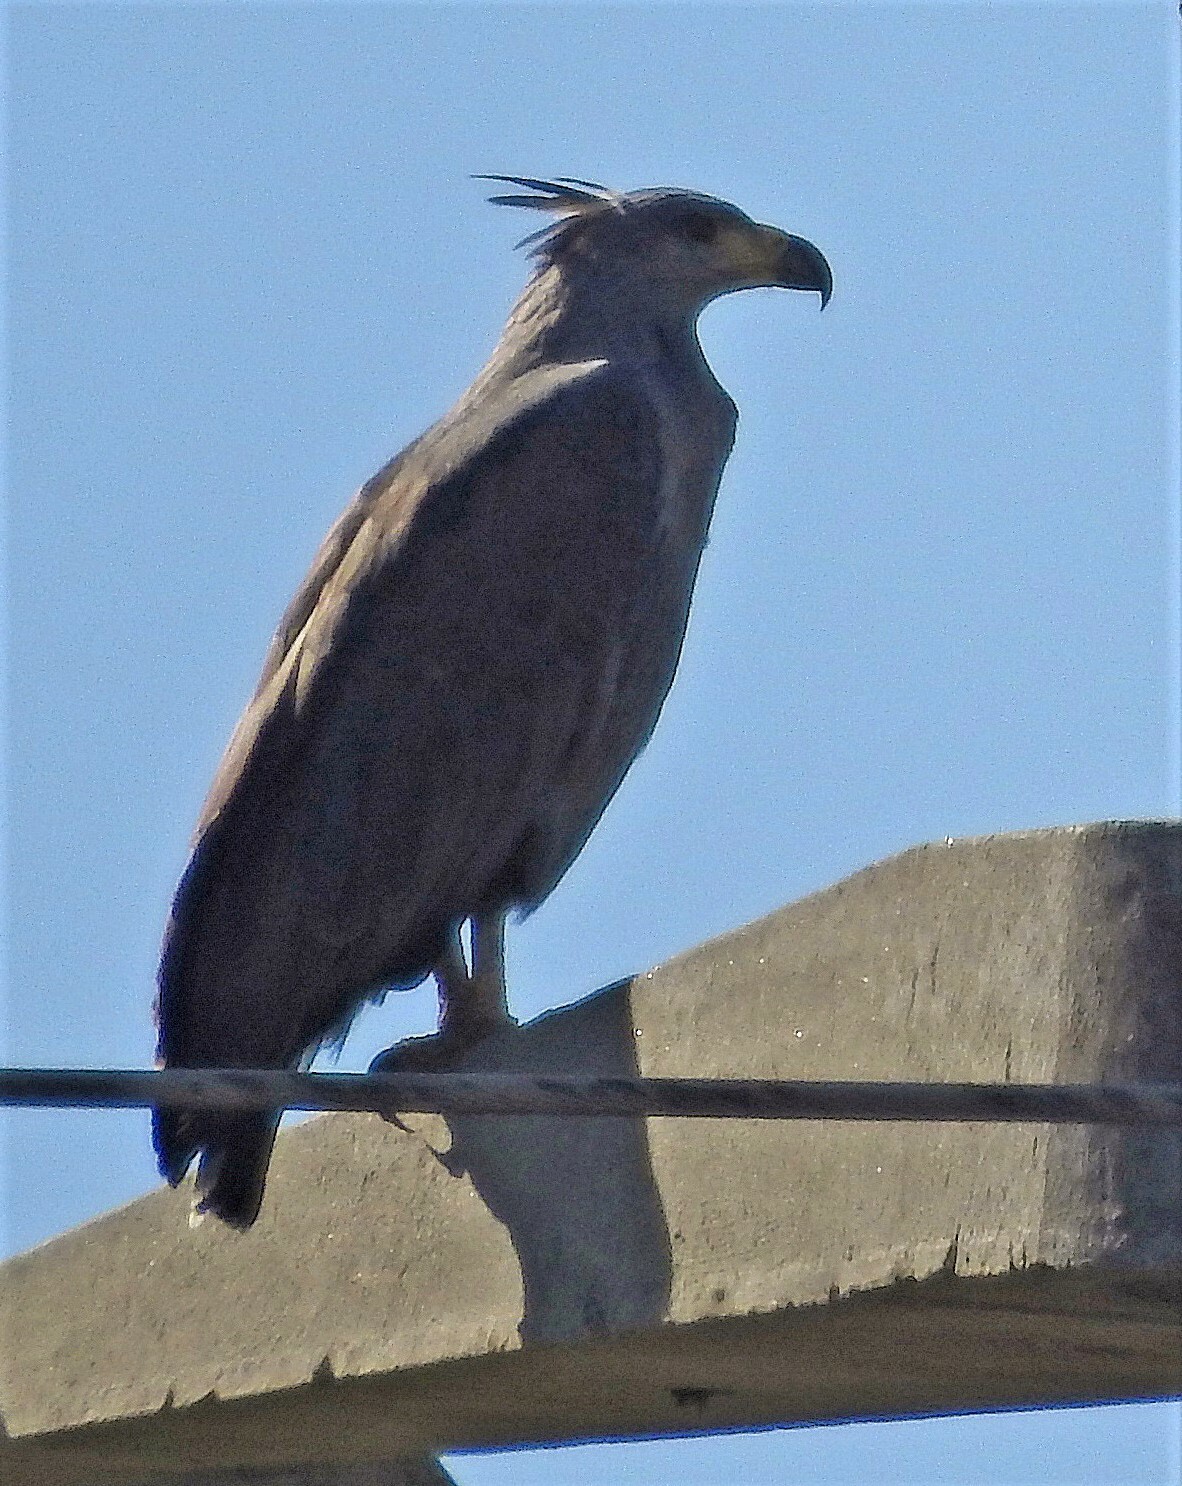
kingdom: Animalia
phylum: Chordata
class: Aves
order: Accipitriformes
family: Accipitridae
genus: Harpyhaliaetus
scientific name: Harpyhaliaetus coronatus
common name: Crowned solitary eagle
